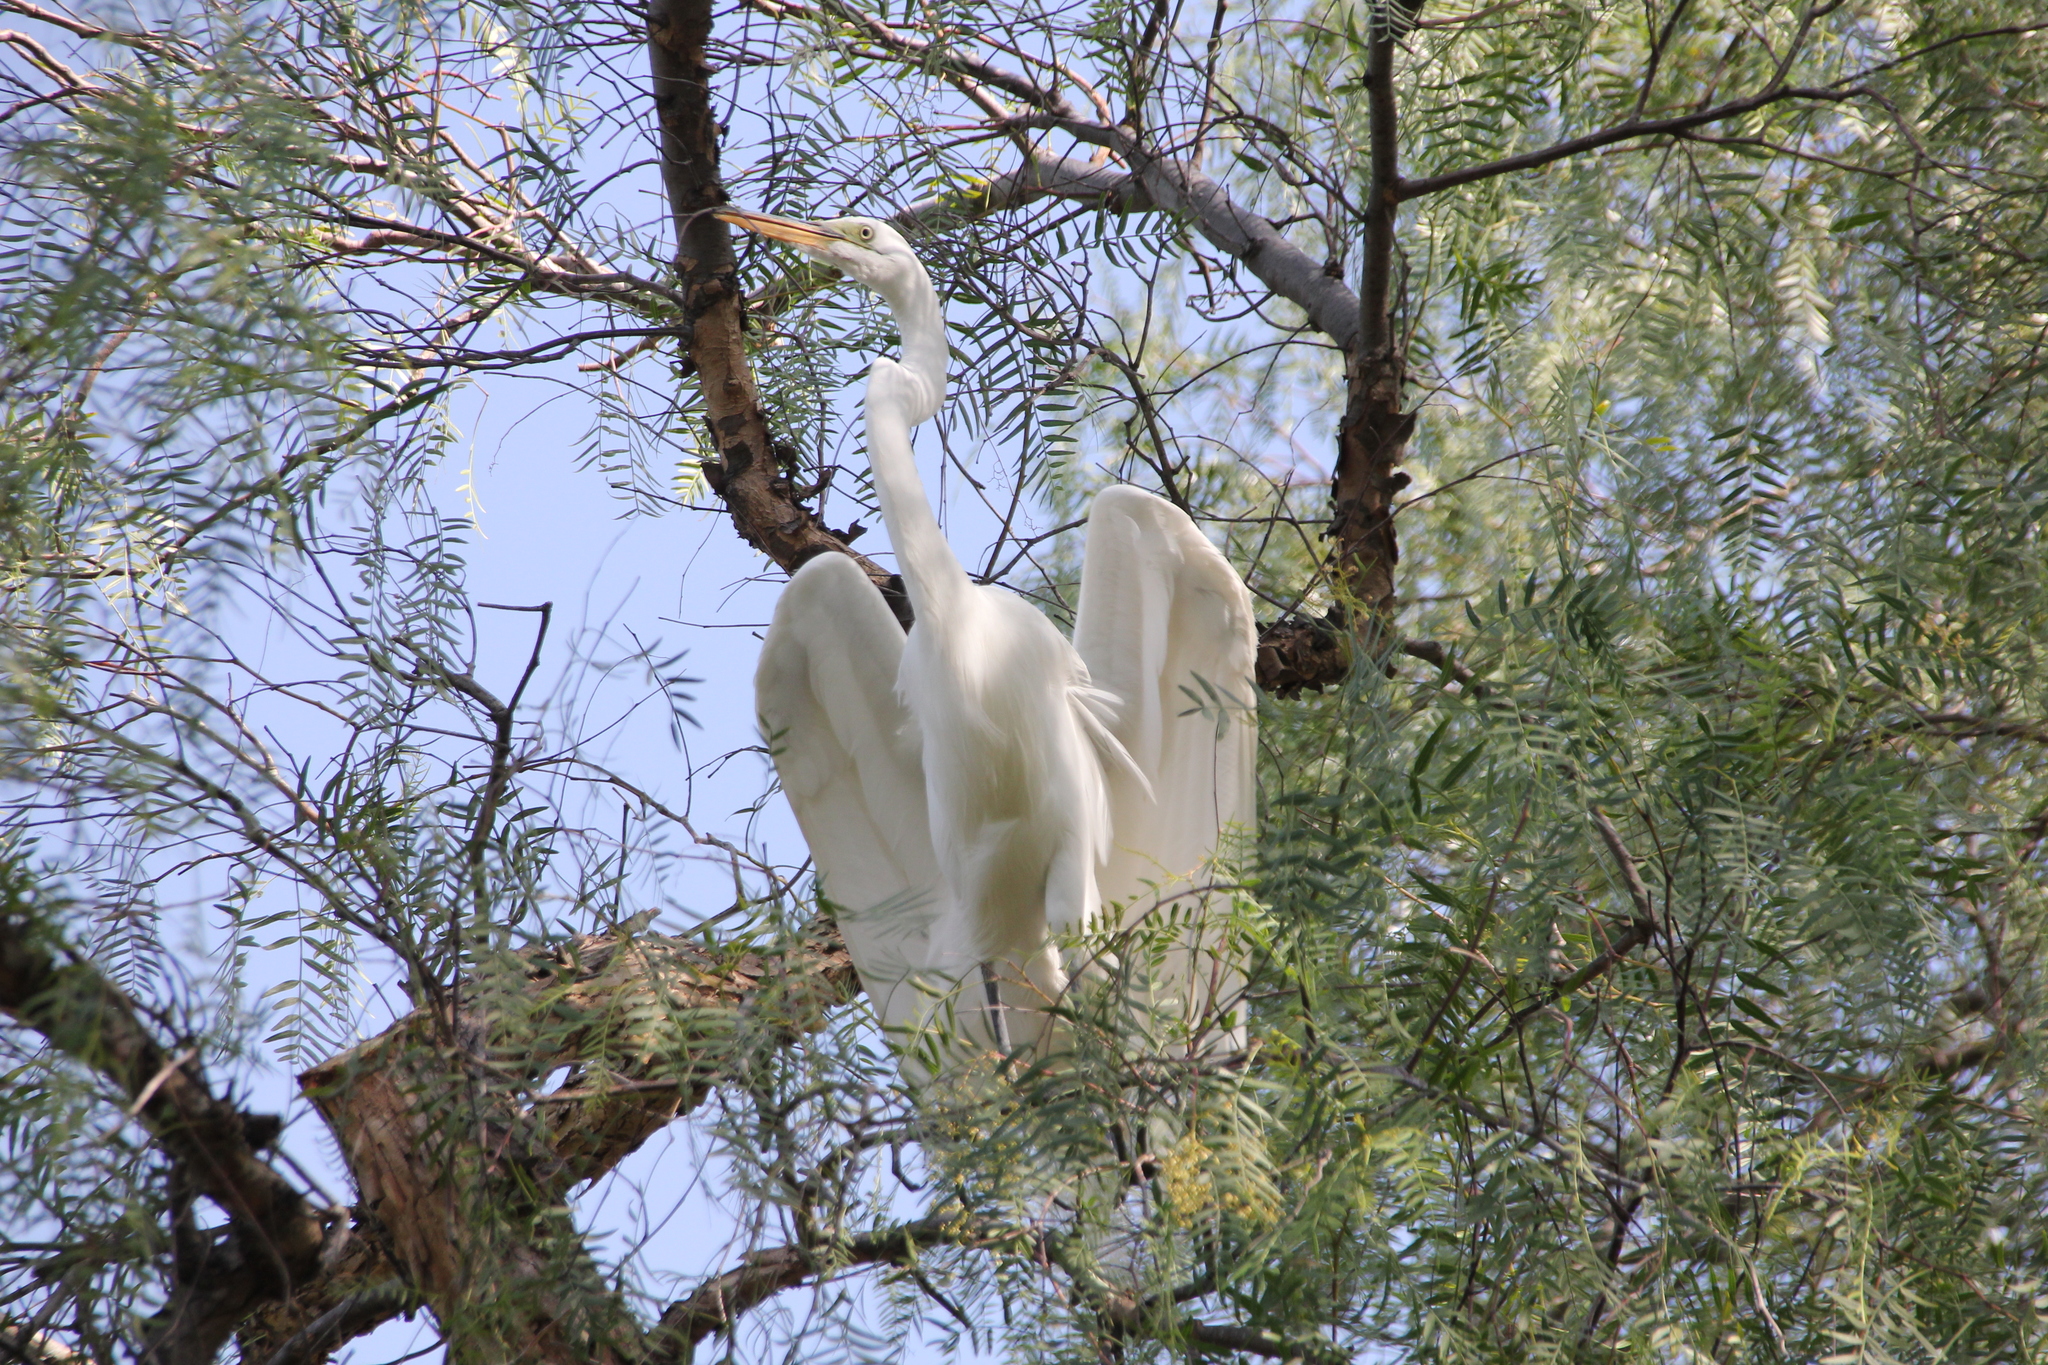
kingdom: Animalia
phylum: Chordata
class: Aves
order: Pelecaniformes
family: Ardeidae
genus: Ardea
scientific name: Ardea alba
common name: Great egret
